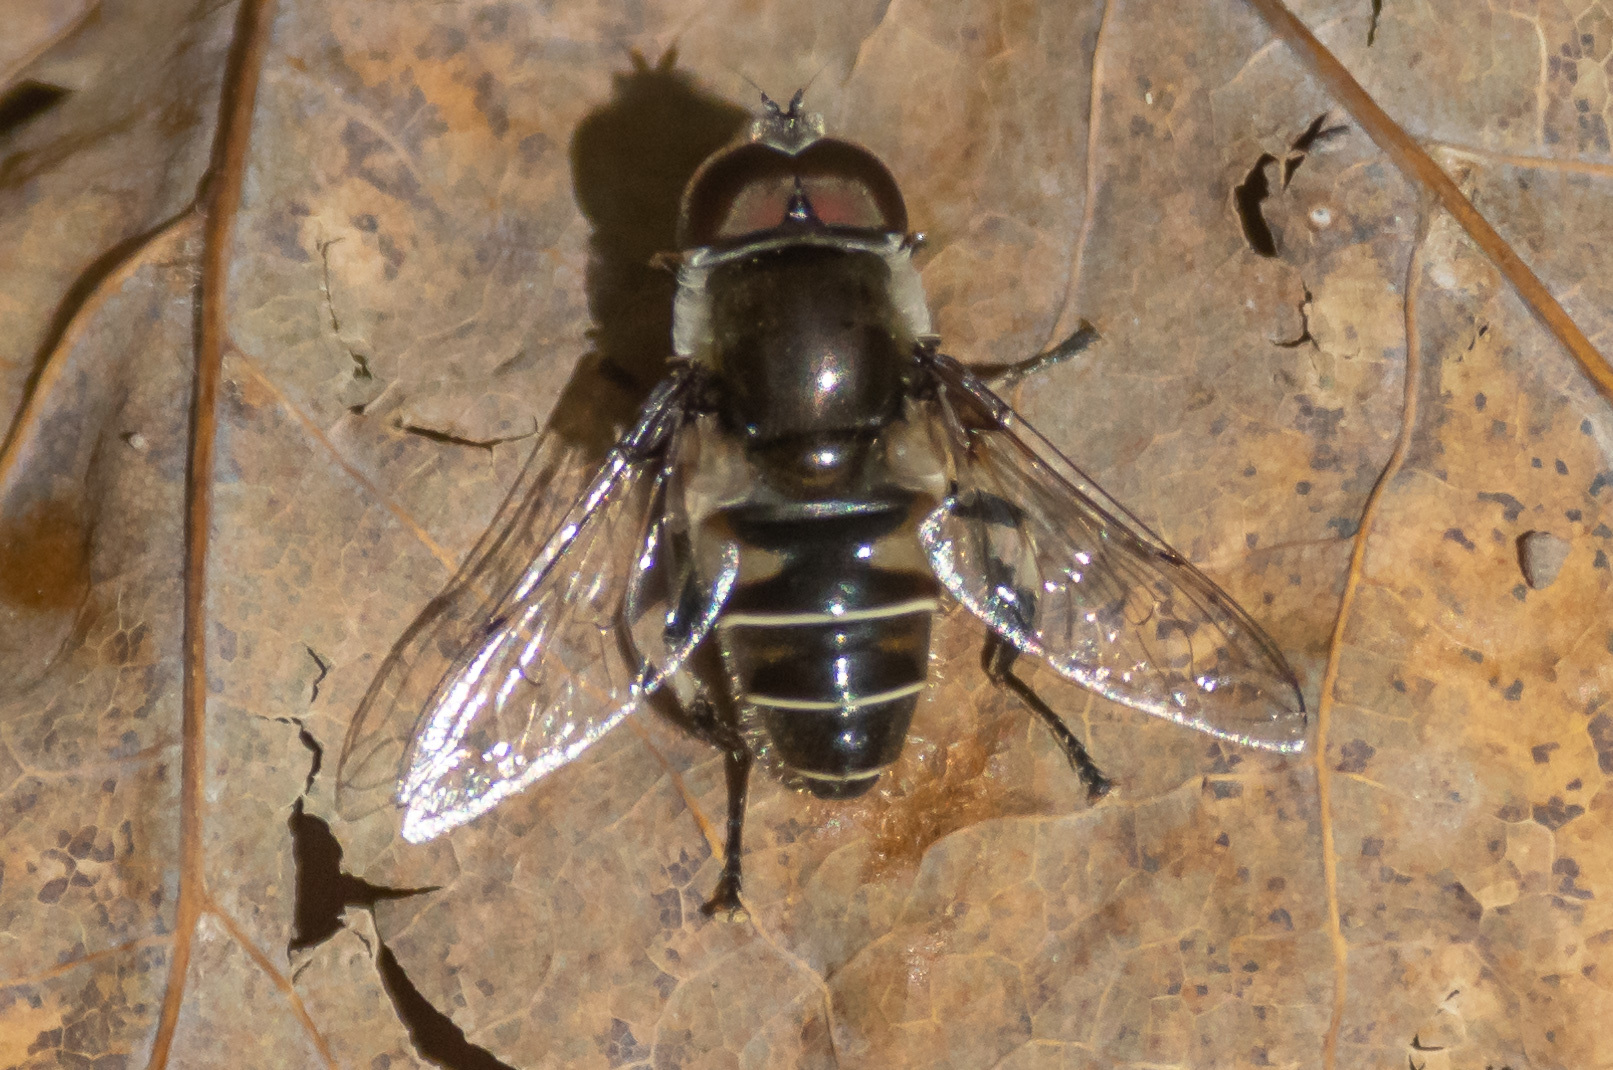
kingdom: Animalia
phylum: Arthropoda
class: Insecta
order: Diptera
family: Syrphidae
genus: Eristalis
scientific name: Eristalis dimidiata
